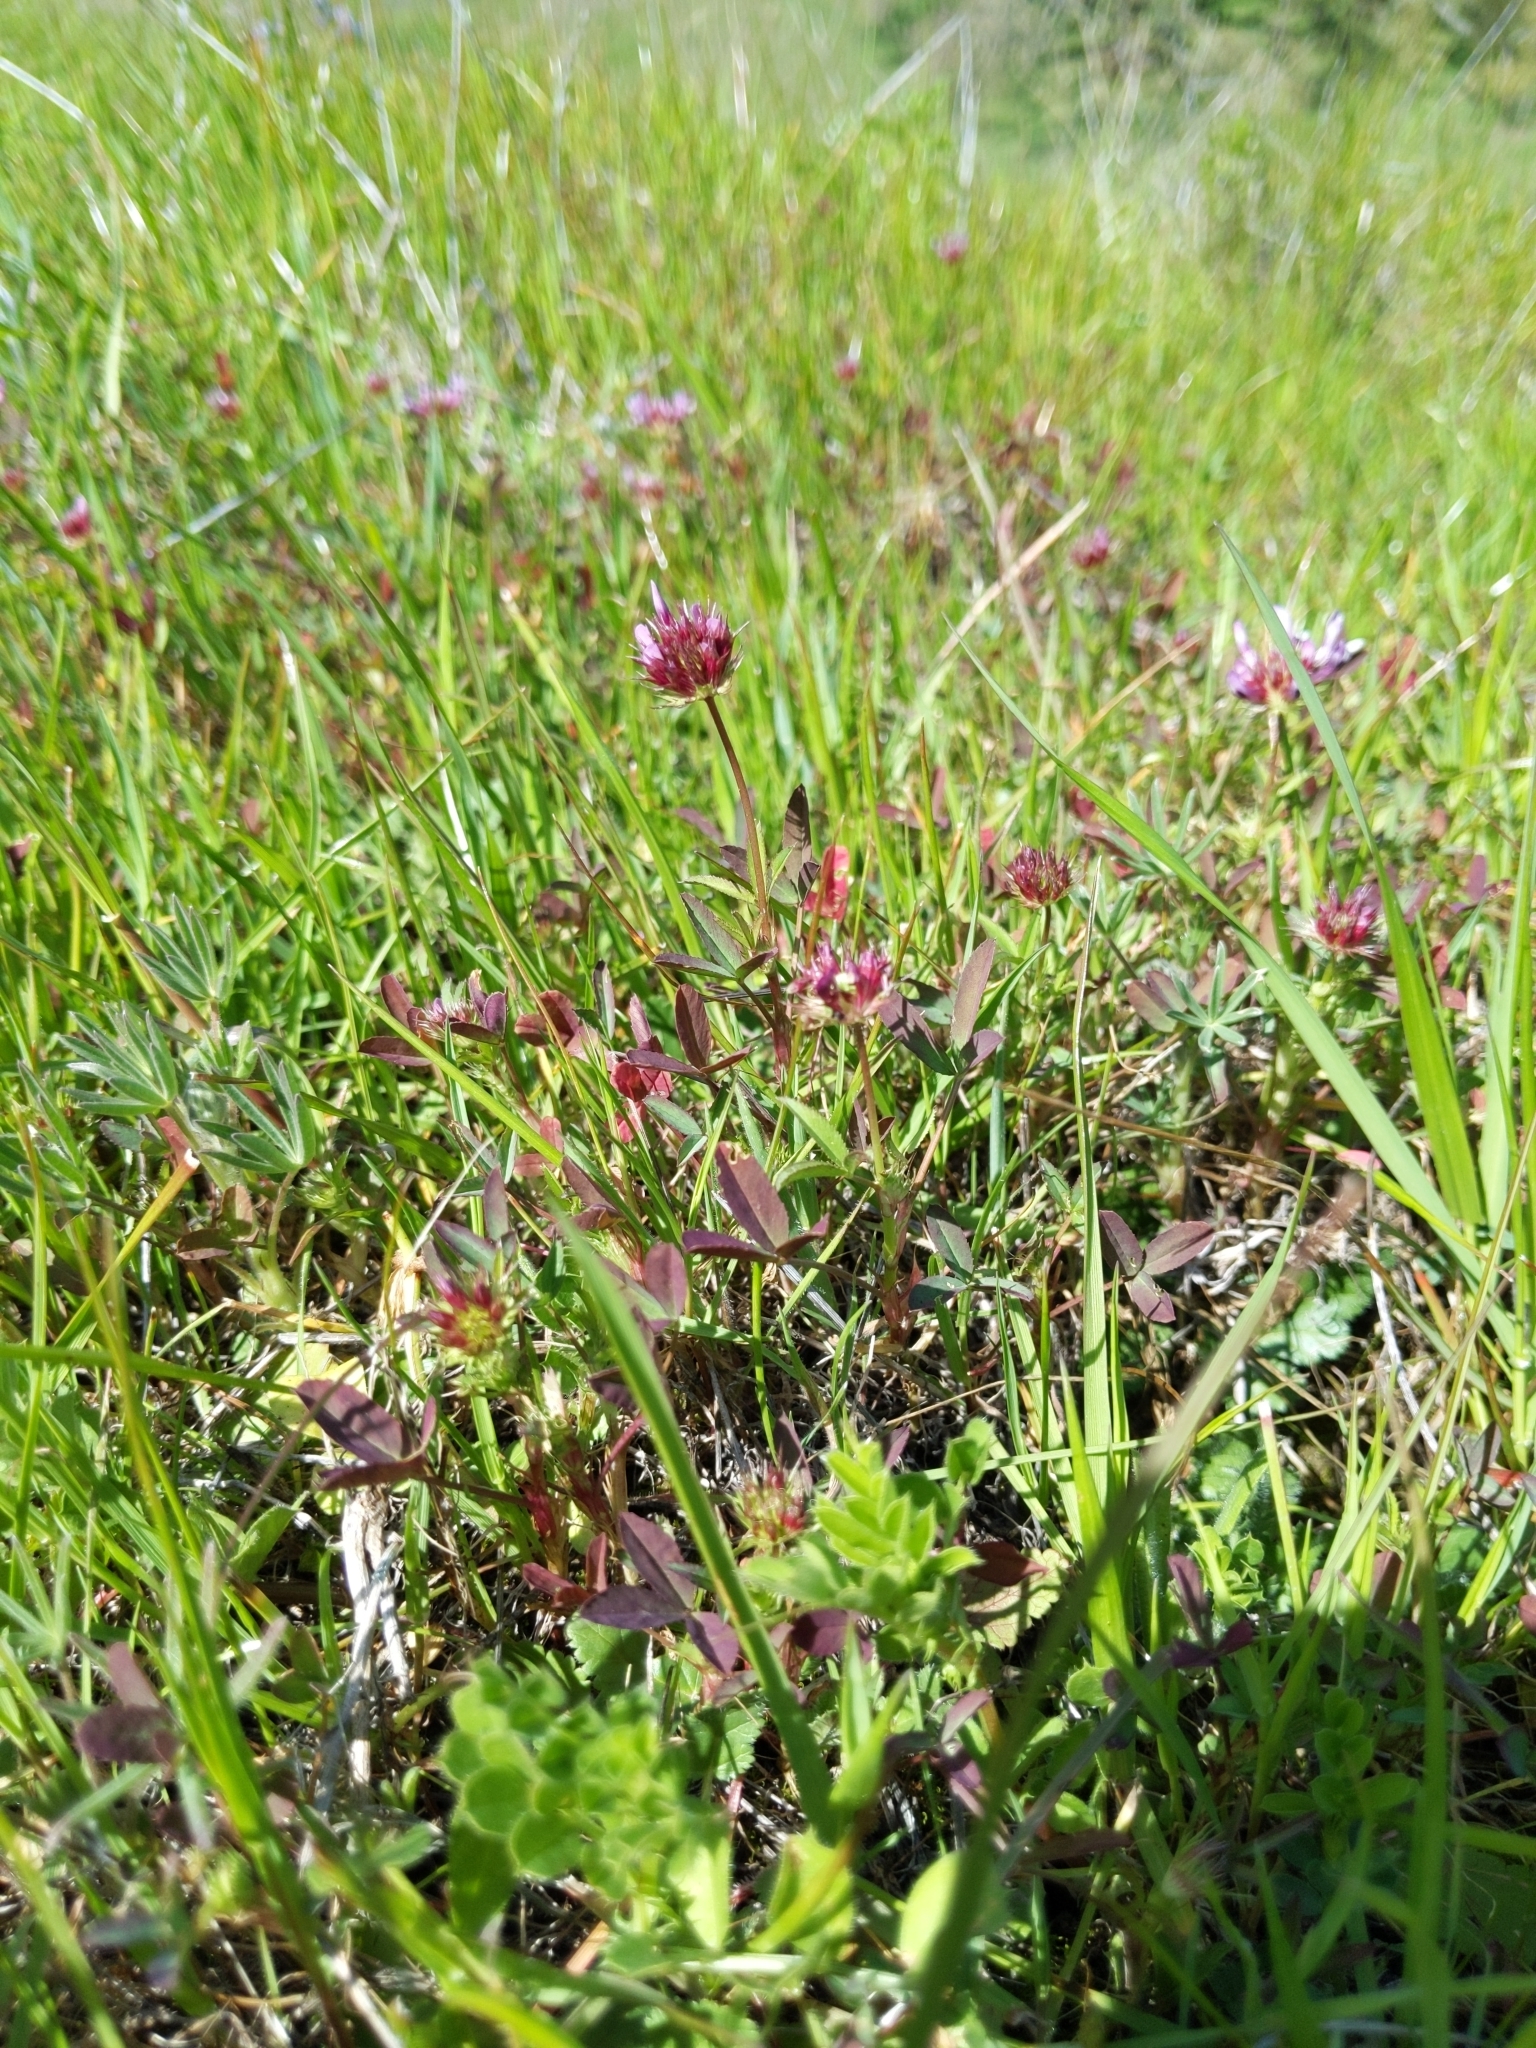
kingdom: Plantae
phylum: Tracheophyta
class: Magnoliopsida
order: Fabales
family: Fabaceae
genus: Trifolium
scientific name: Trifolium willdenovii
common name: Tomcat clover
